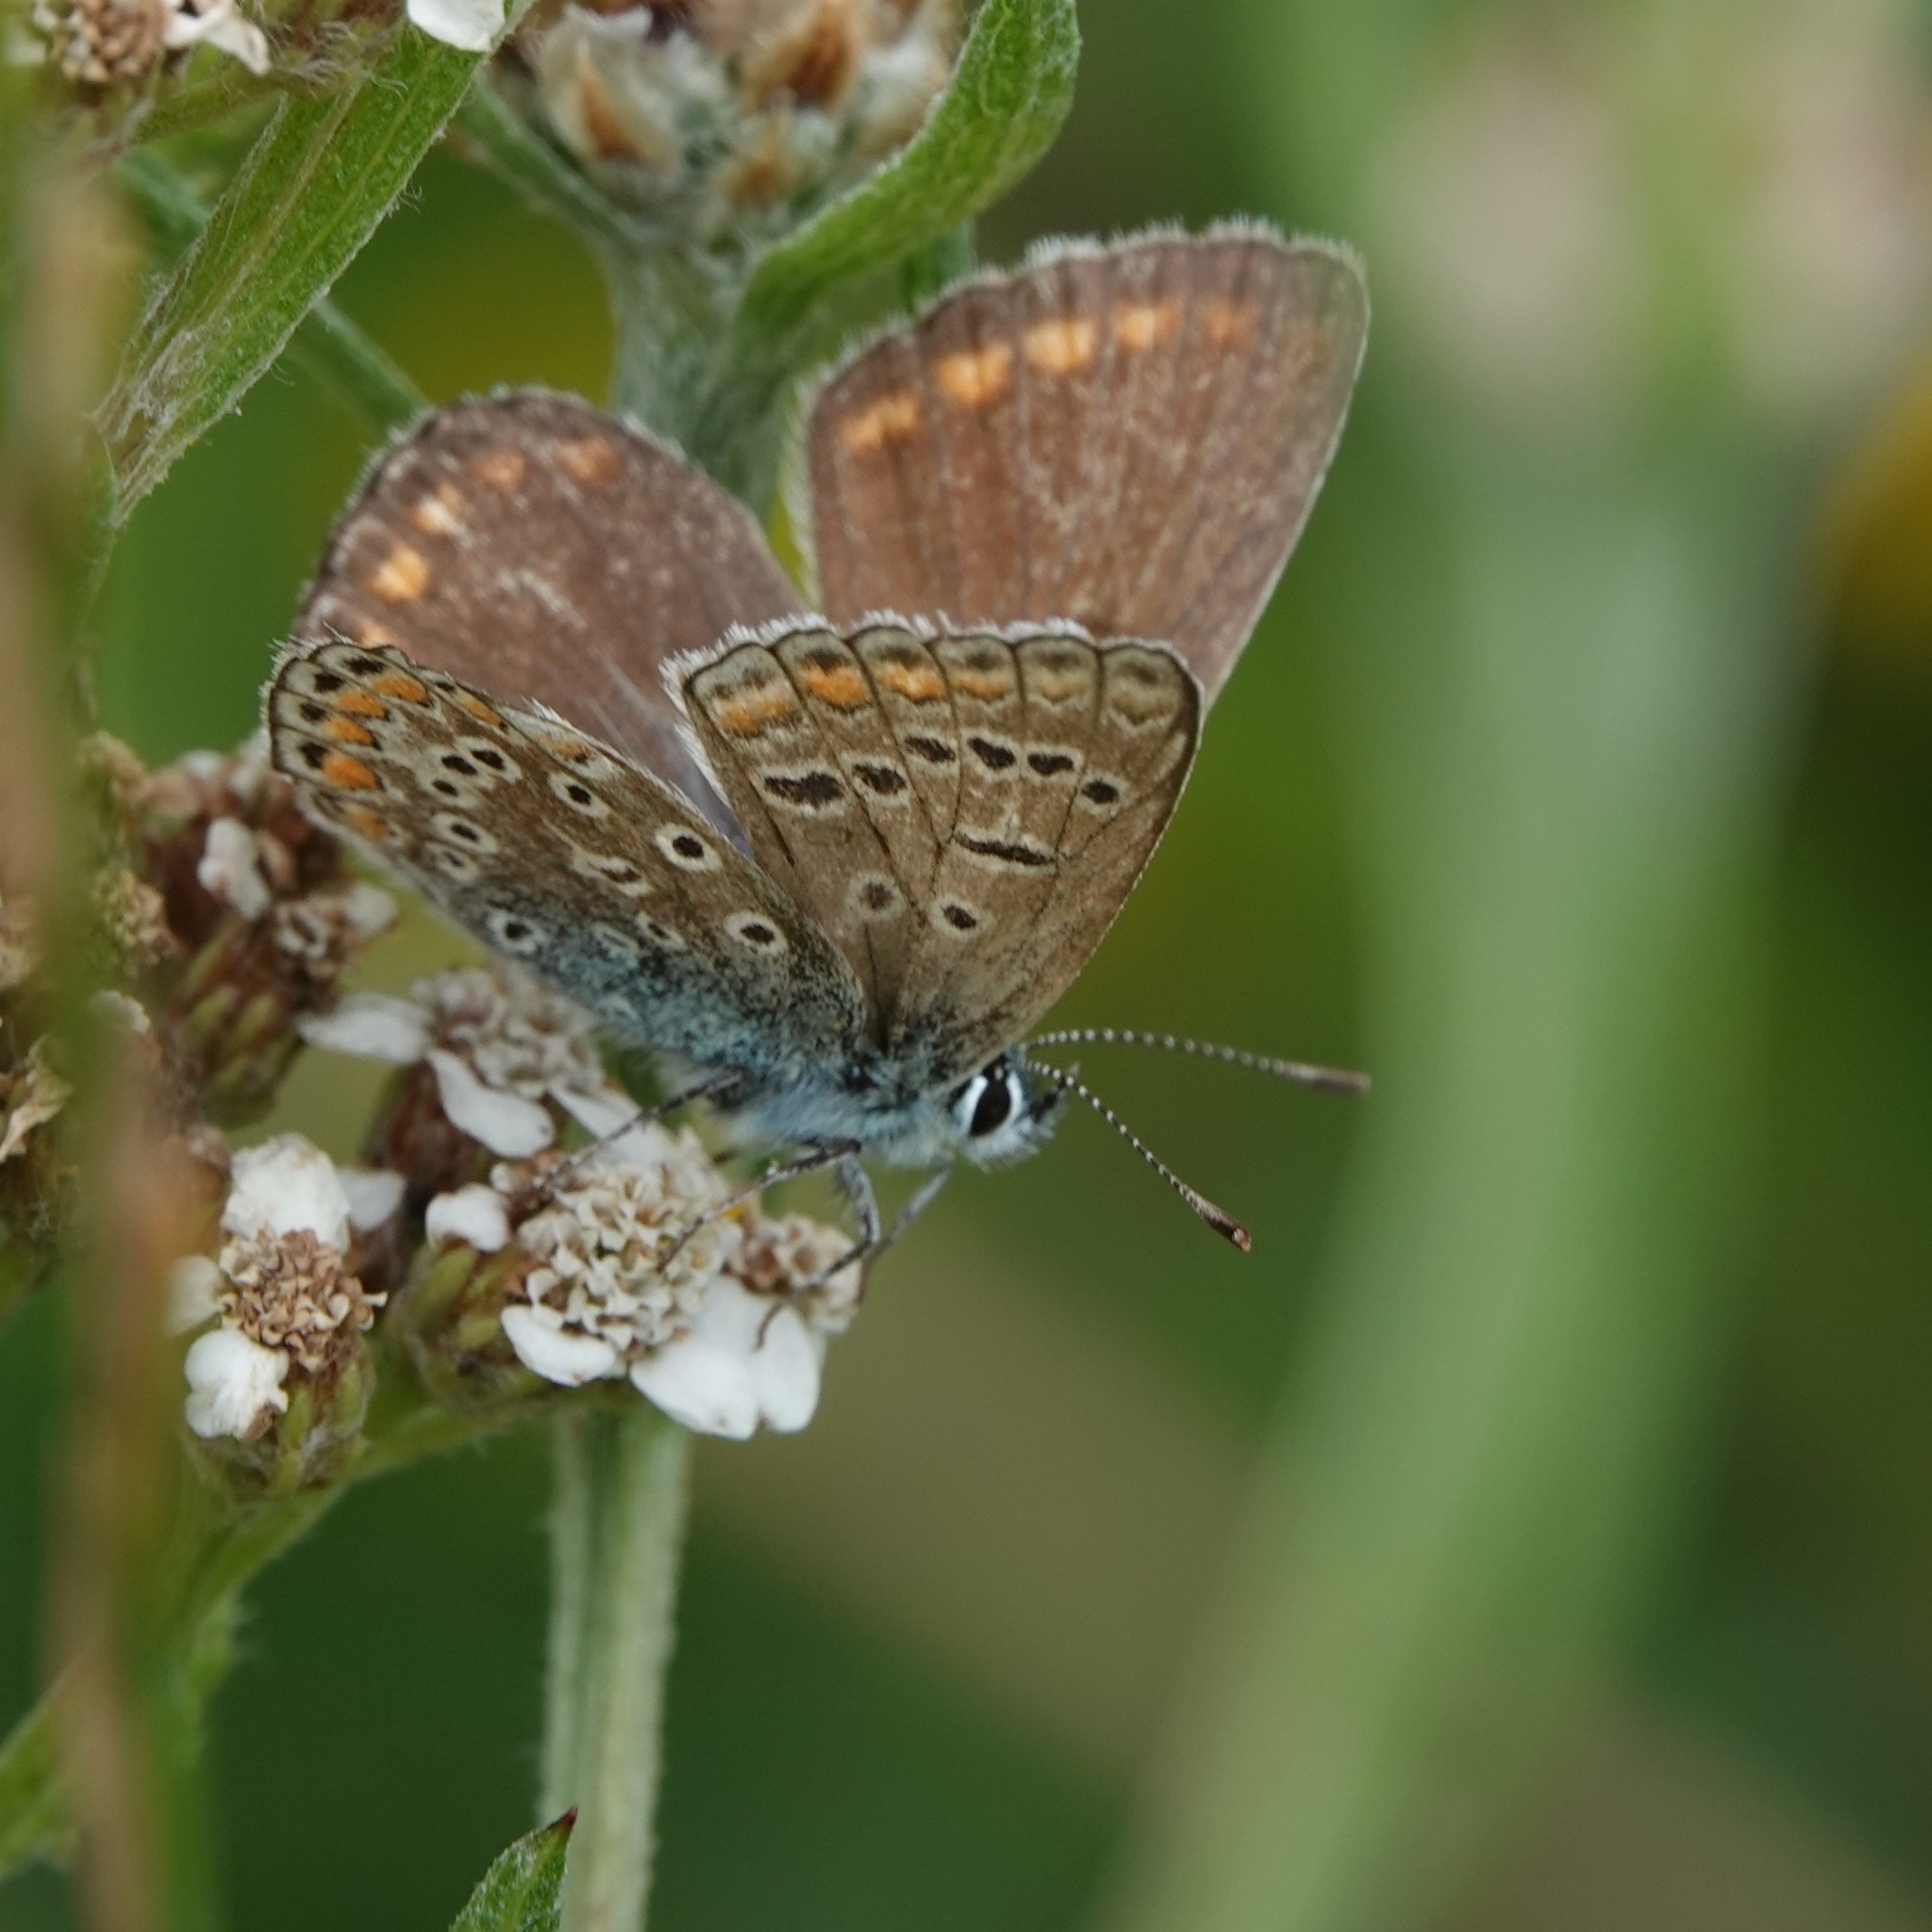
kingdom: Animalia
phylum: Arthropoda
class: Insecta
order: Lepidoptera
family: Lycaenidae
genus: Polyommatus
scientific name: Polyommatus icarus
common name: Common blue
